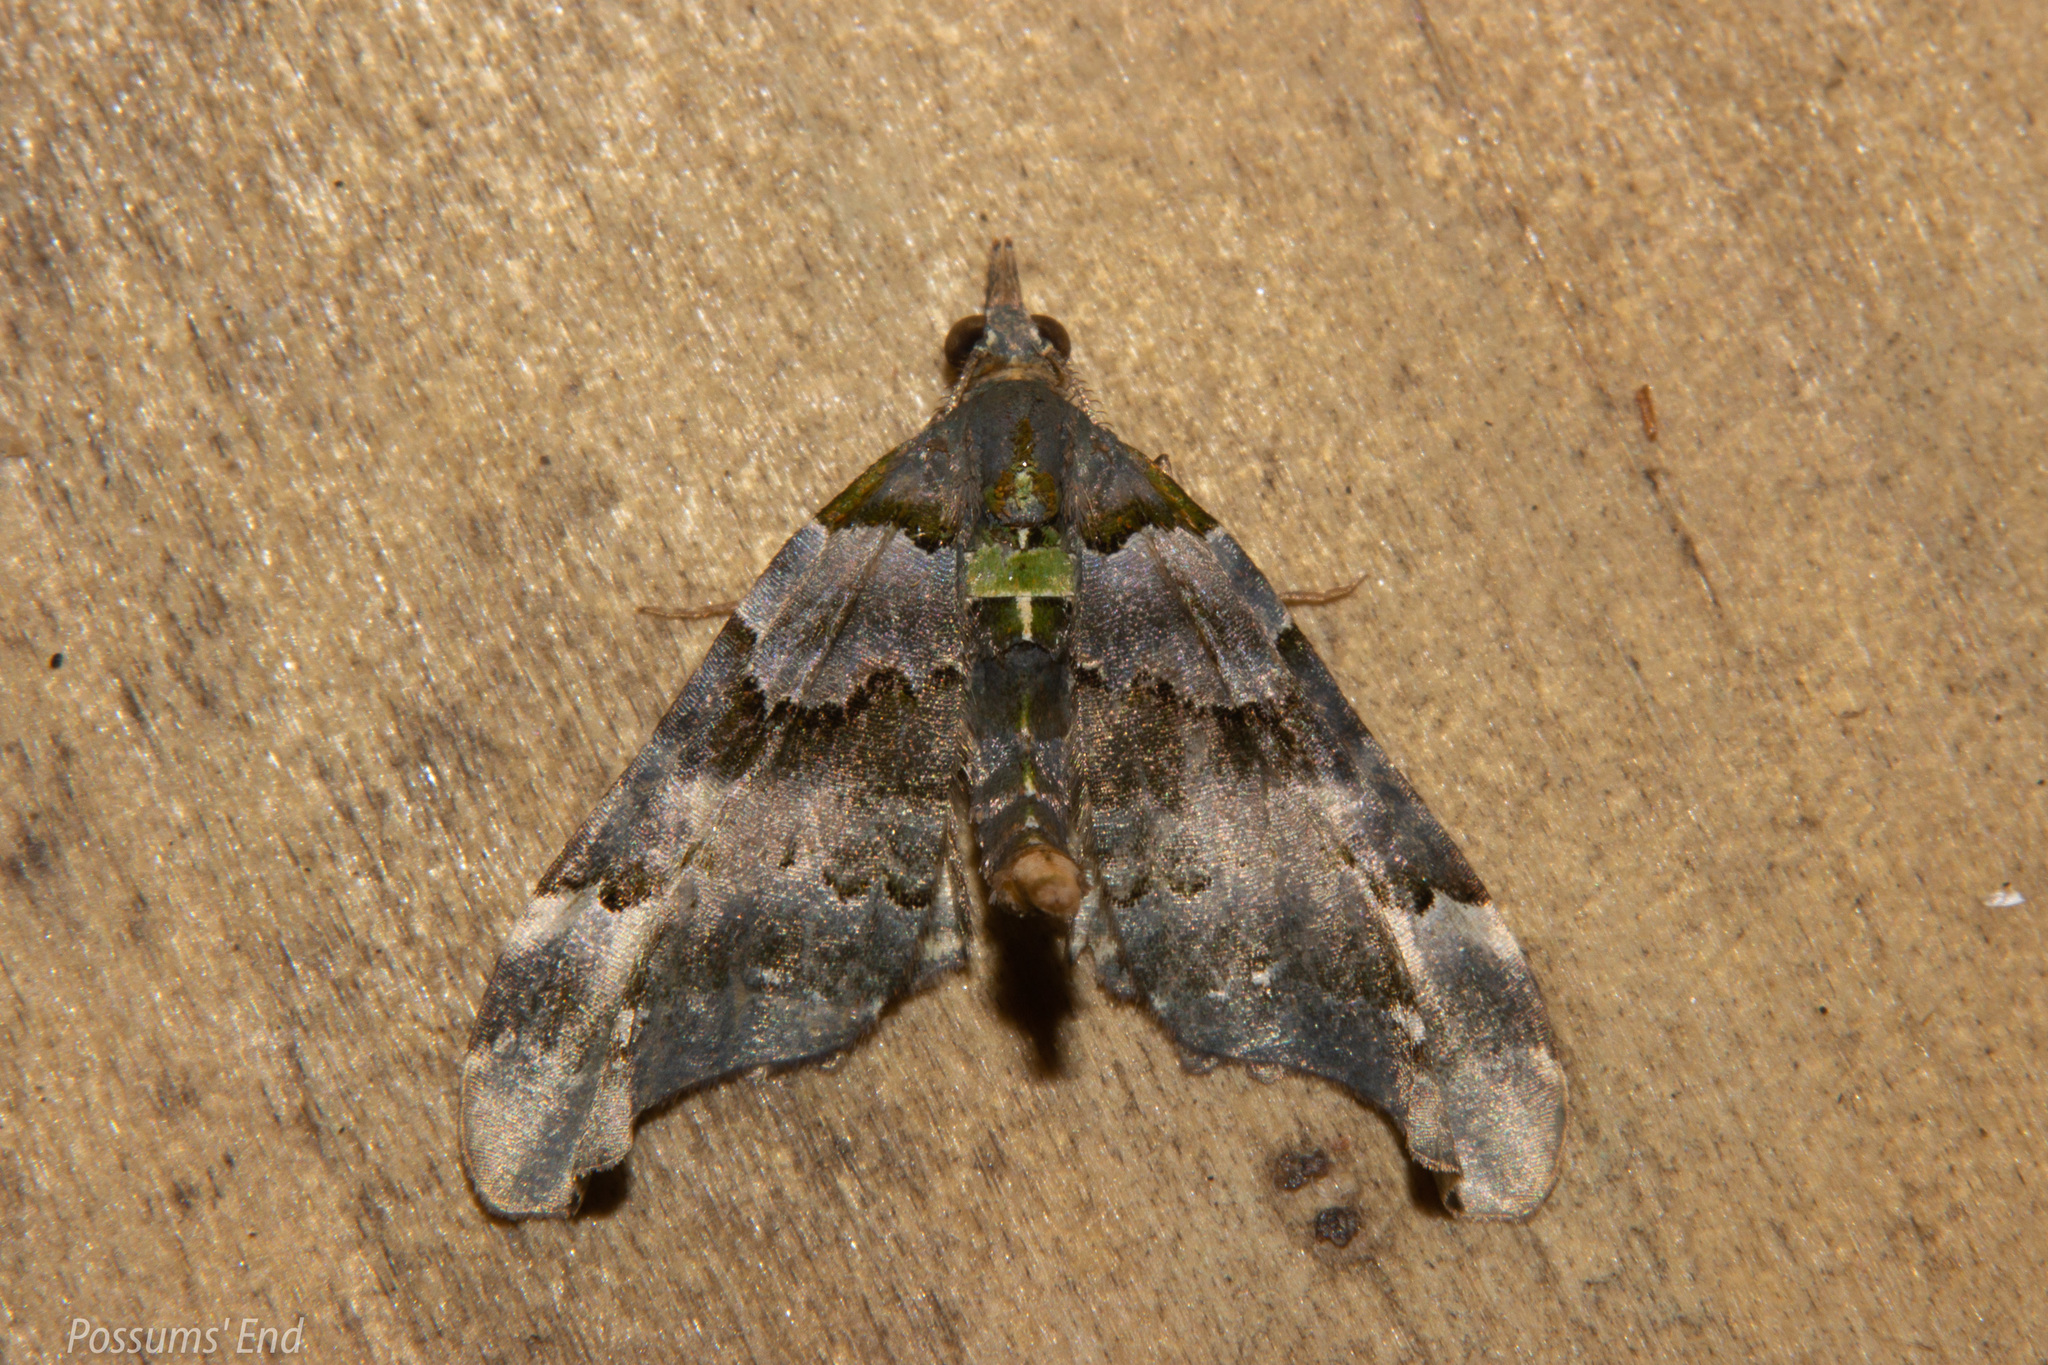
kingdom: Animalia
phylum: Arthropoda
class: Insecta
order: Lepidoptera
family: Geometridae
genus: Elvia
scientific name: Elvia glaucata
